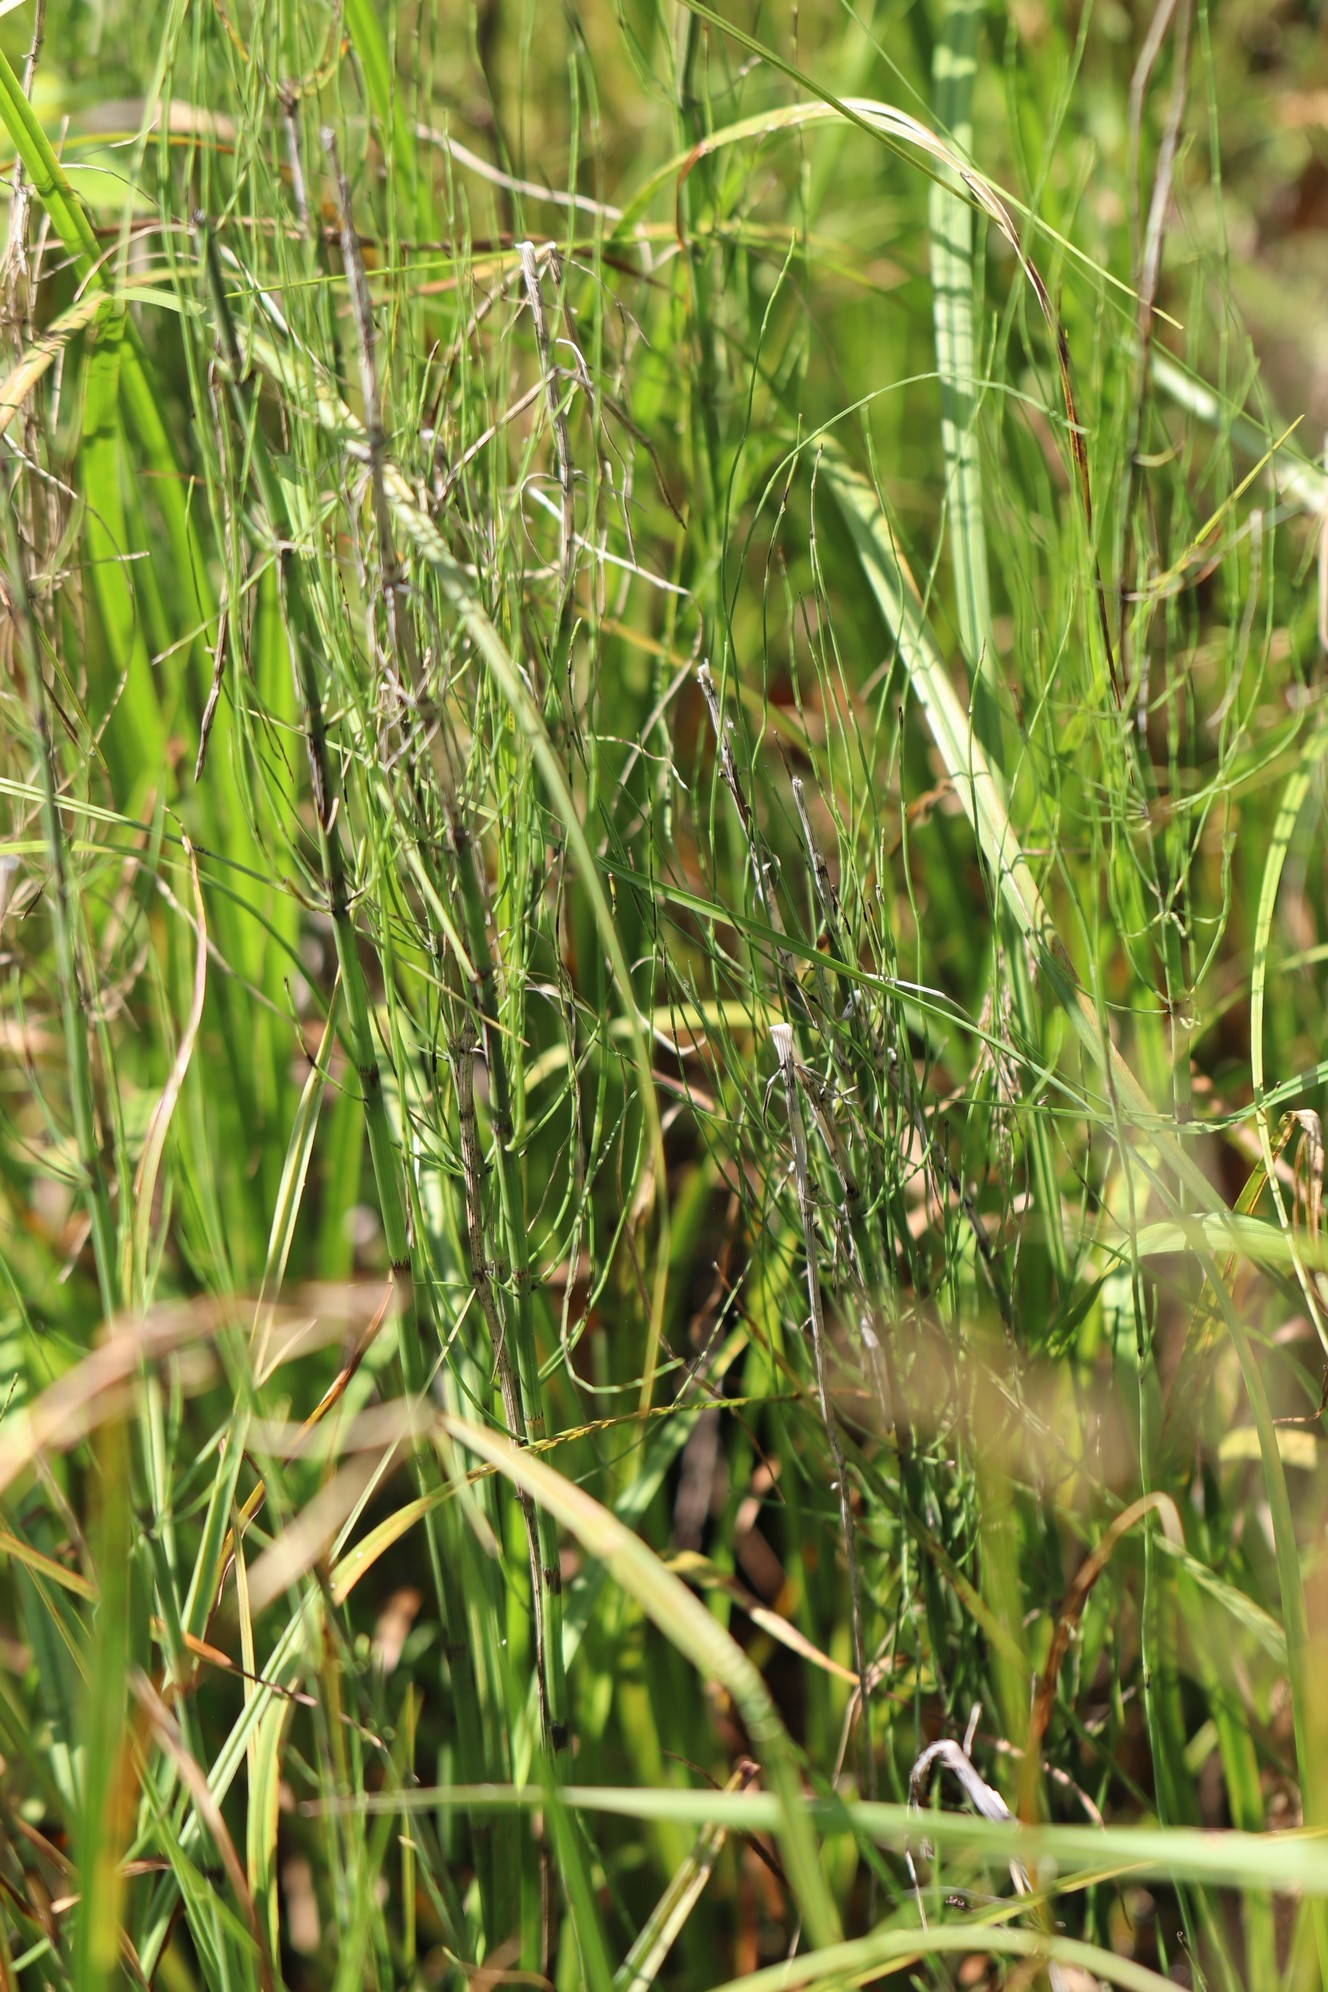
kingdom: Plantae
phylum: Tracheophyta
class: Polypodiopsida
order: Equisetales
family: Equisetaceae
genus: Equisetum
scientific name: Equisetum fluviatile
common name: Water horsetail
